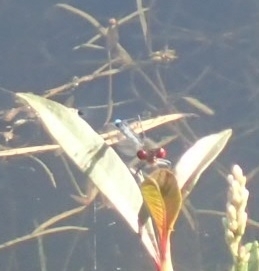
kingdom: Animalia
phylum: Arthropoda
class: Insecta
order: Odonata
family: Coenagrionidae
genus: Erythromma
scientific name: Erythromma najas
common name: Red-eyed damselfly
